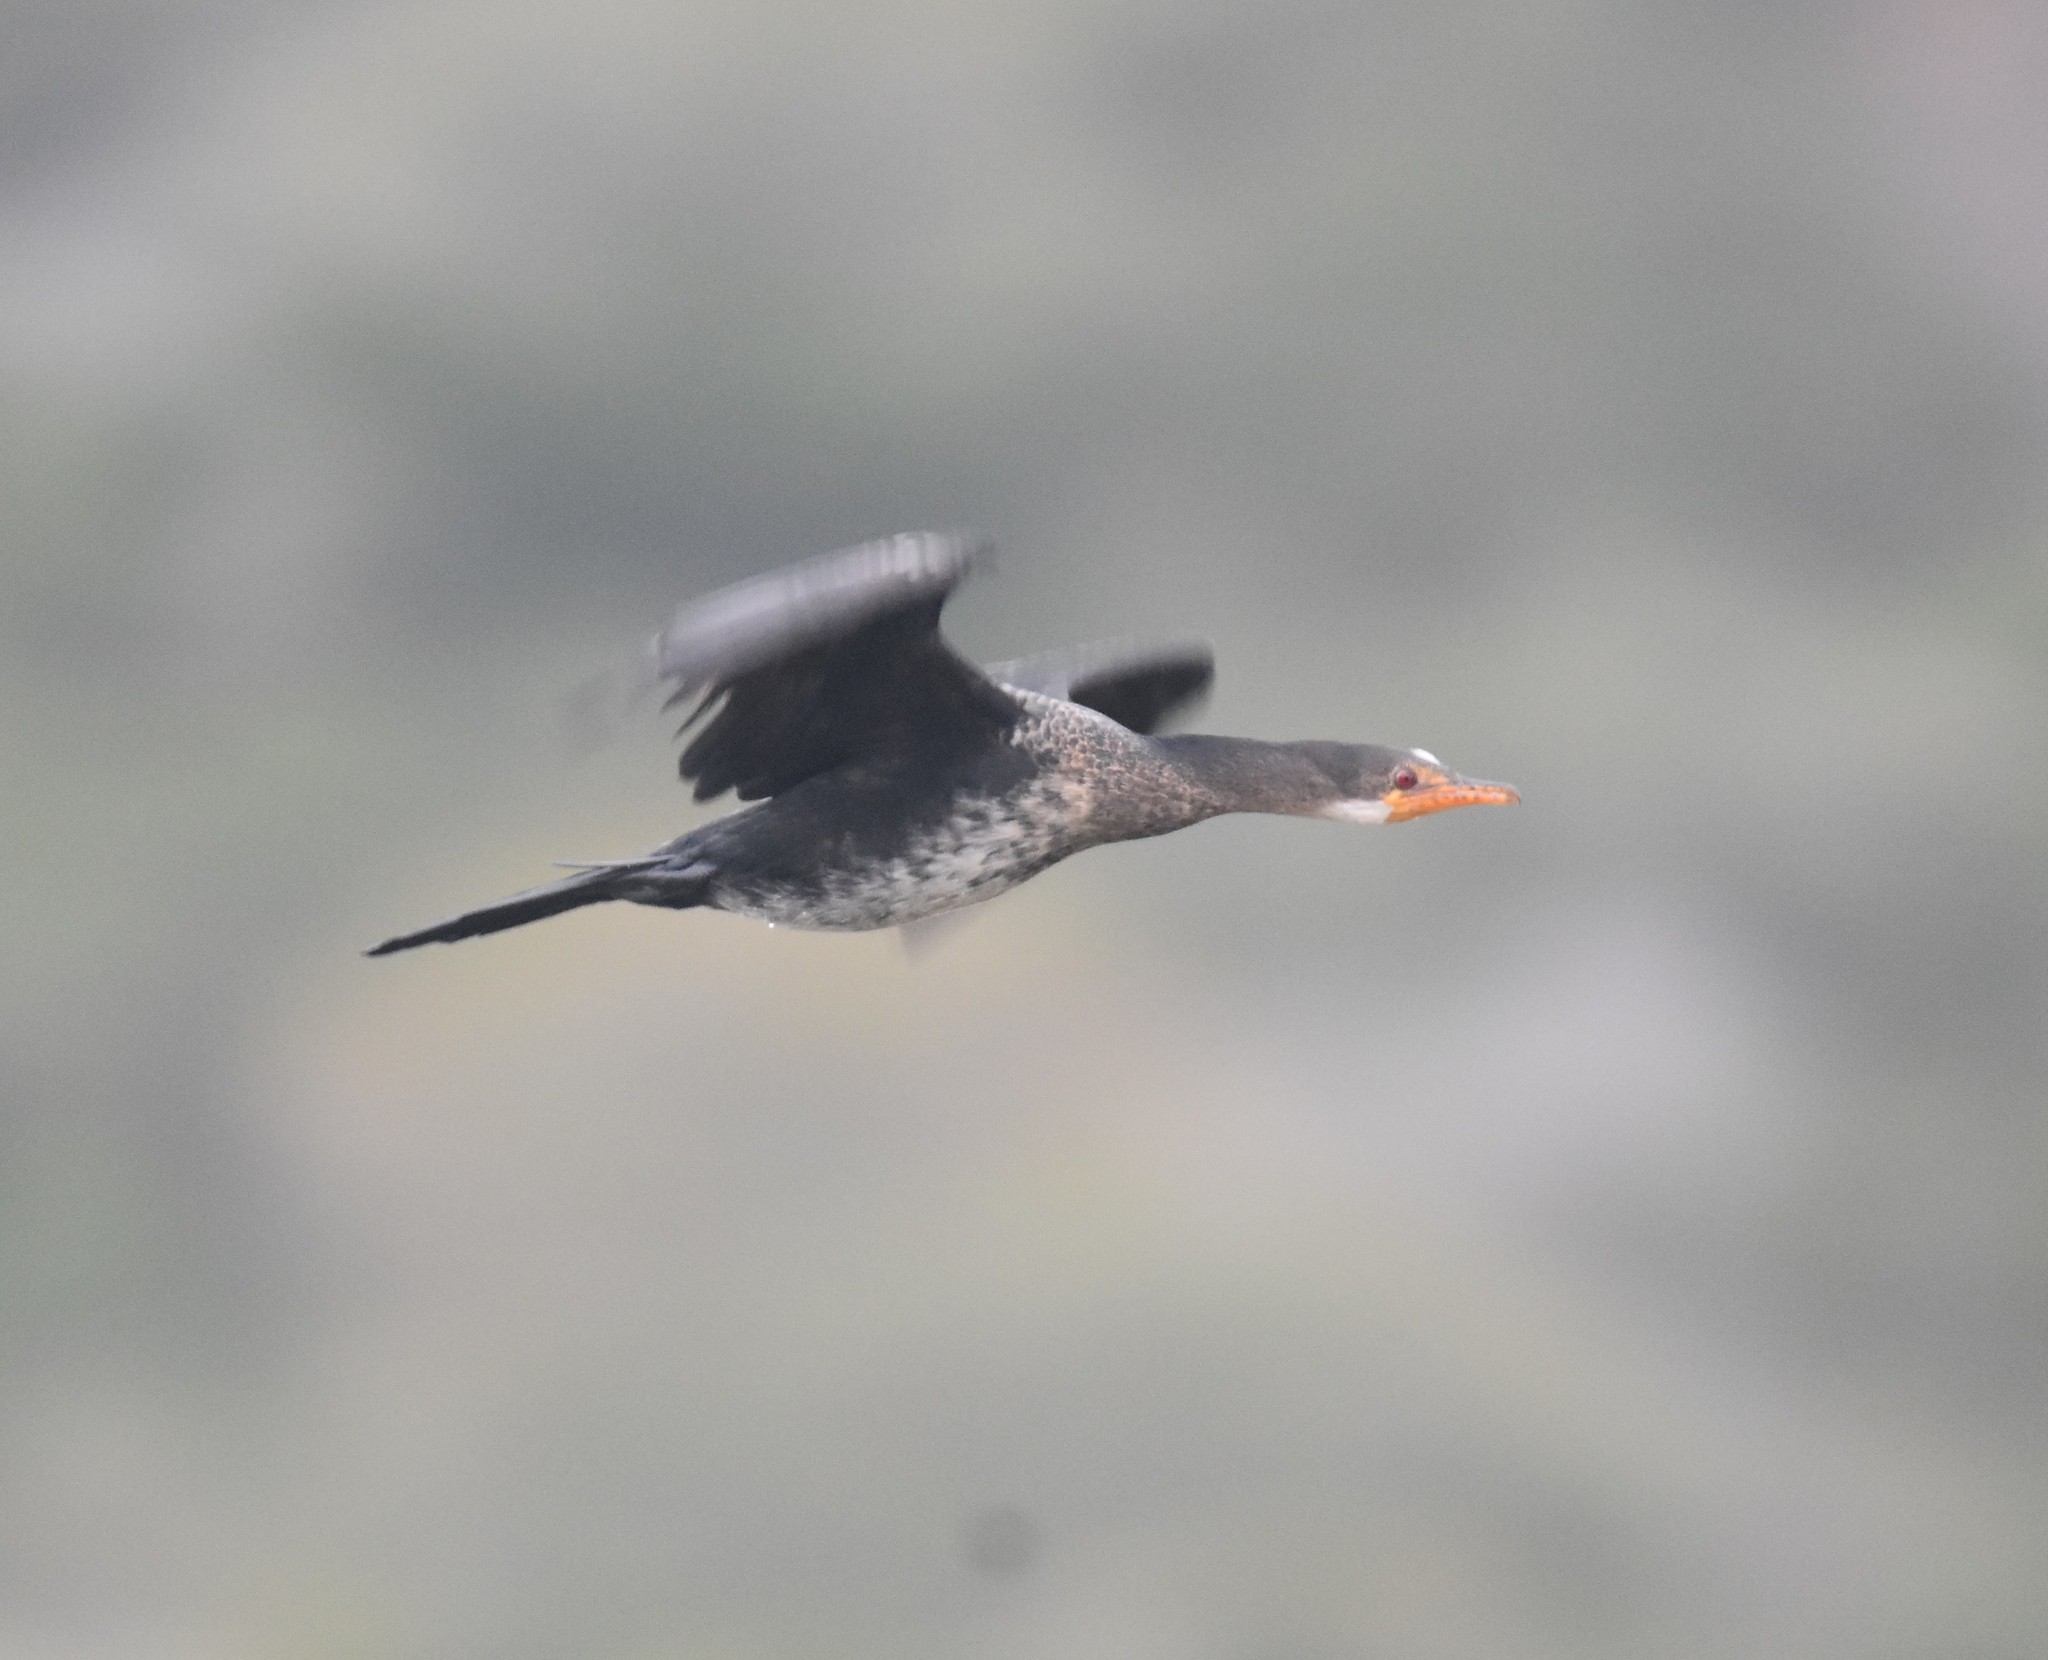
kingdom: Animalia
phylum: Chordata
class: Aves
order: Suliformes
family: Phalacrocoracidae
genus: Microcarbo
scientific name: Microcarbo africanus
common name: Long-tailed cormorant
